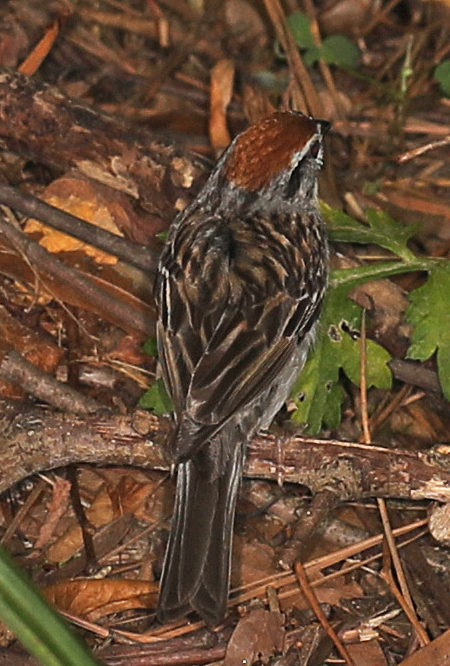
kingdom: Animalia
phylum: Chordata
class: Aves
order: Passeriformes
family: Passerellidae
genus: Spizella
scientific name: Spizella passerina
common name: Chipping sparrow
